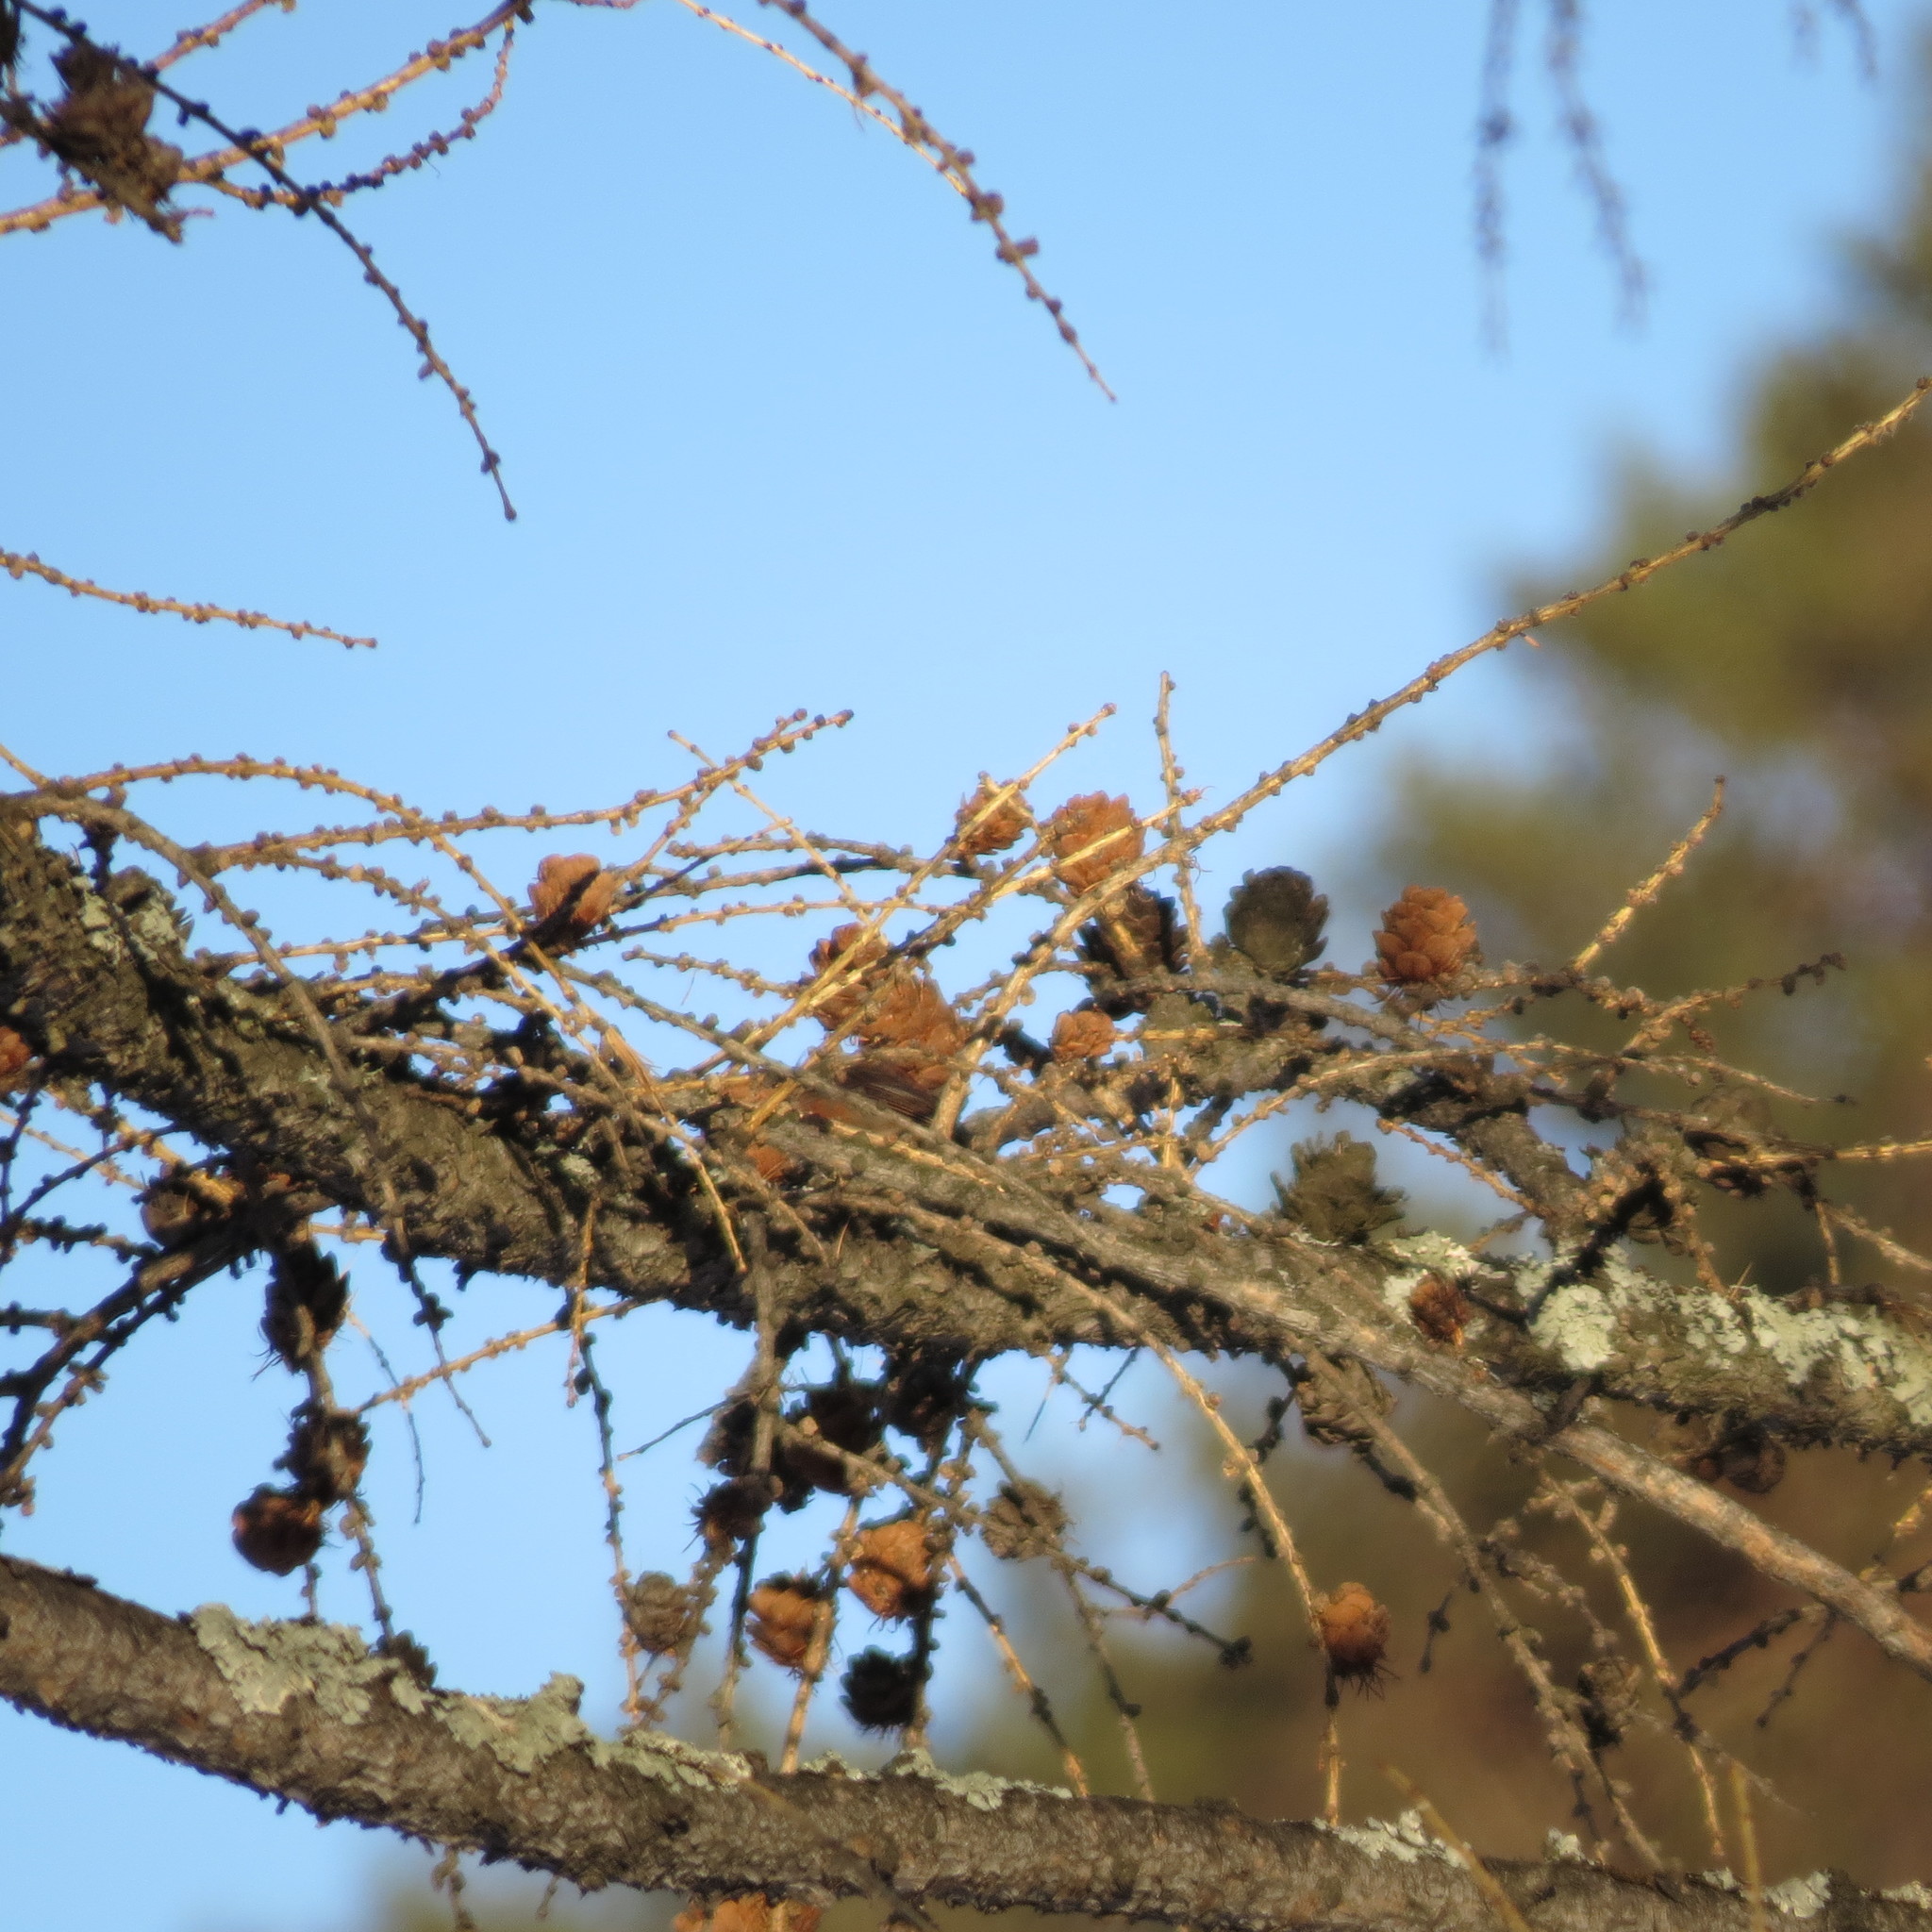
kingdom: Animalia
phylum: Chordata
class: Aves
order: Passeriformes
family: Fringillidae
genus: Loxia
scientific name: Loxia curvirostra
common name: Red crossbill
